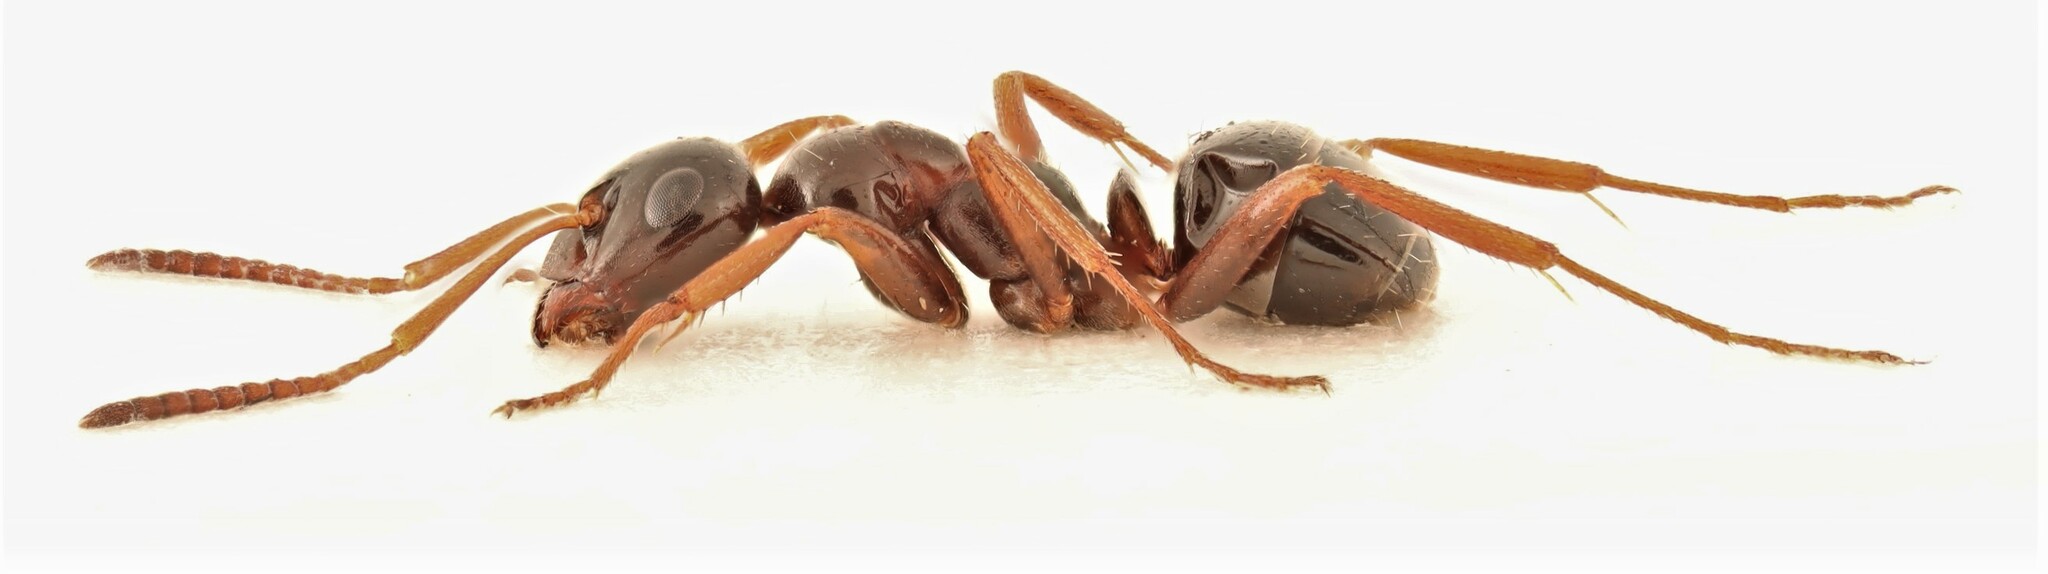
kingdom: Animalia
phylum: Arthropoda
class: Insecta
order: Hymenoptera
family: Formicidae
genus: Formica
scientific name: Formica neogagates
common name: New world black ant
